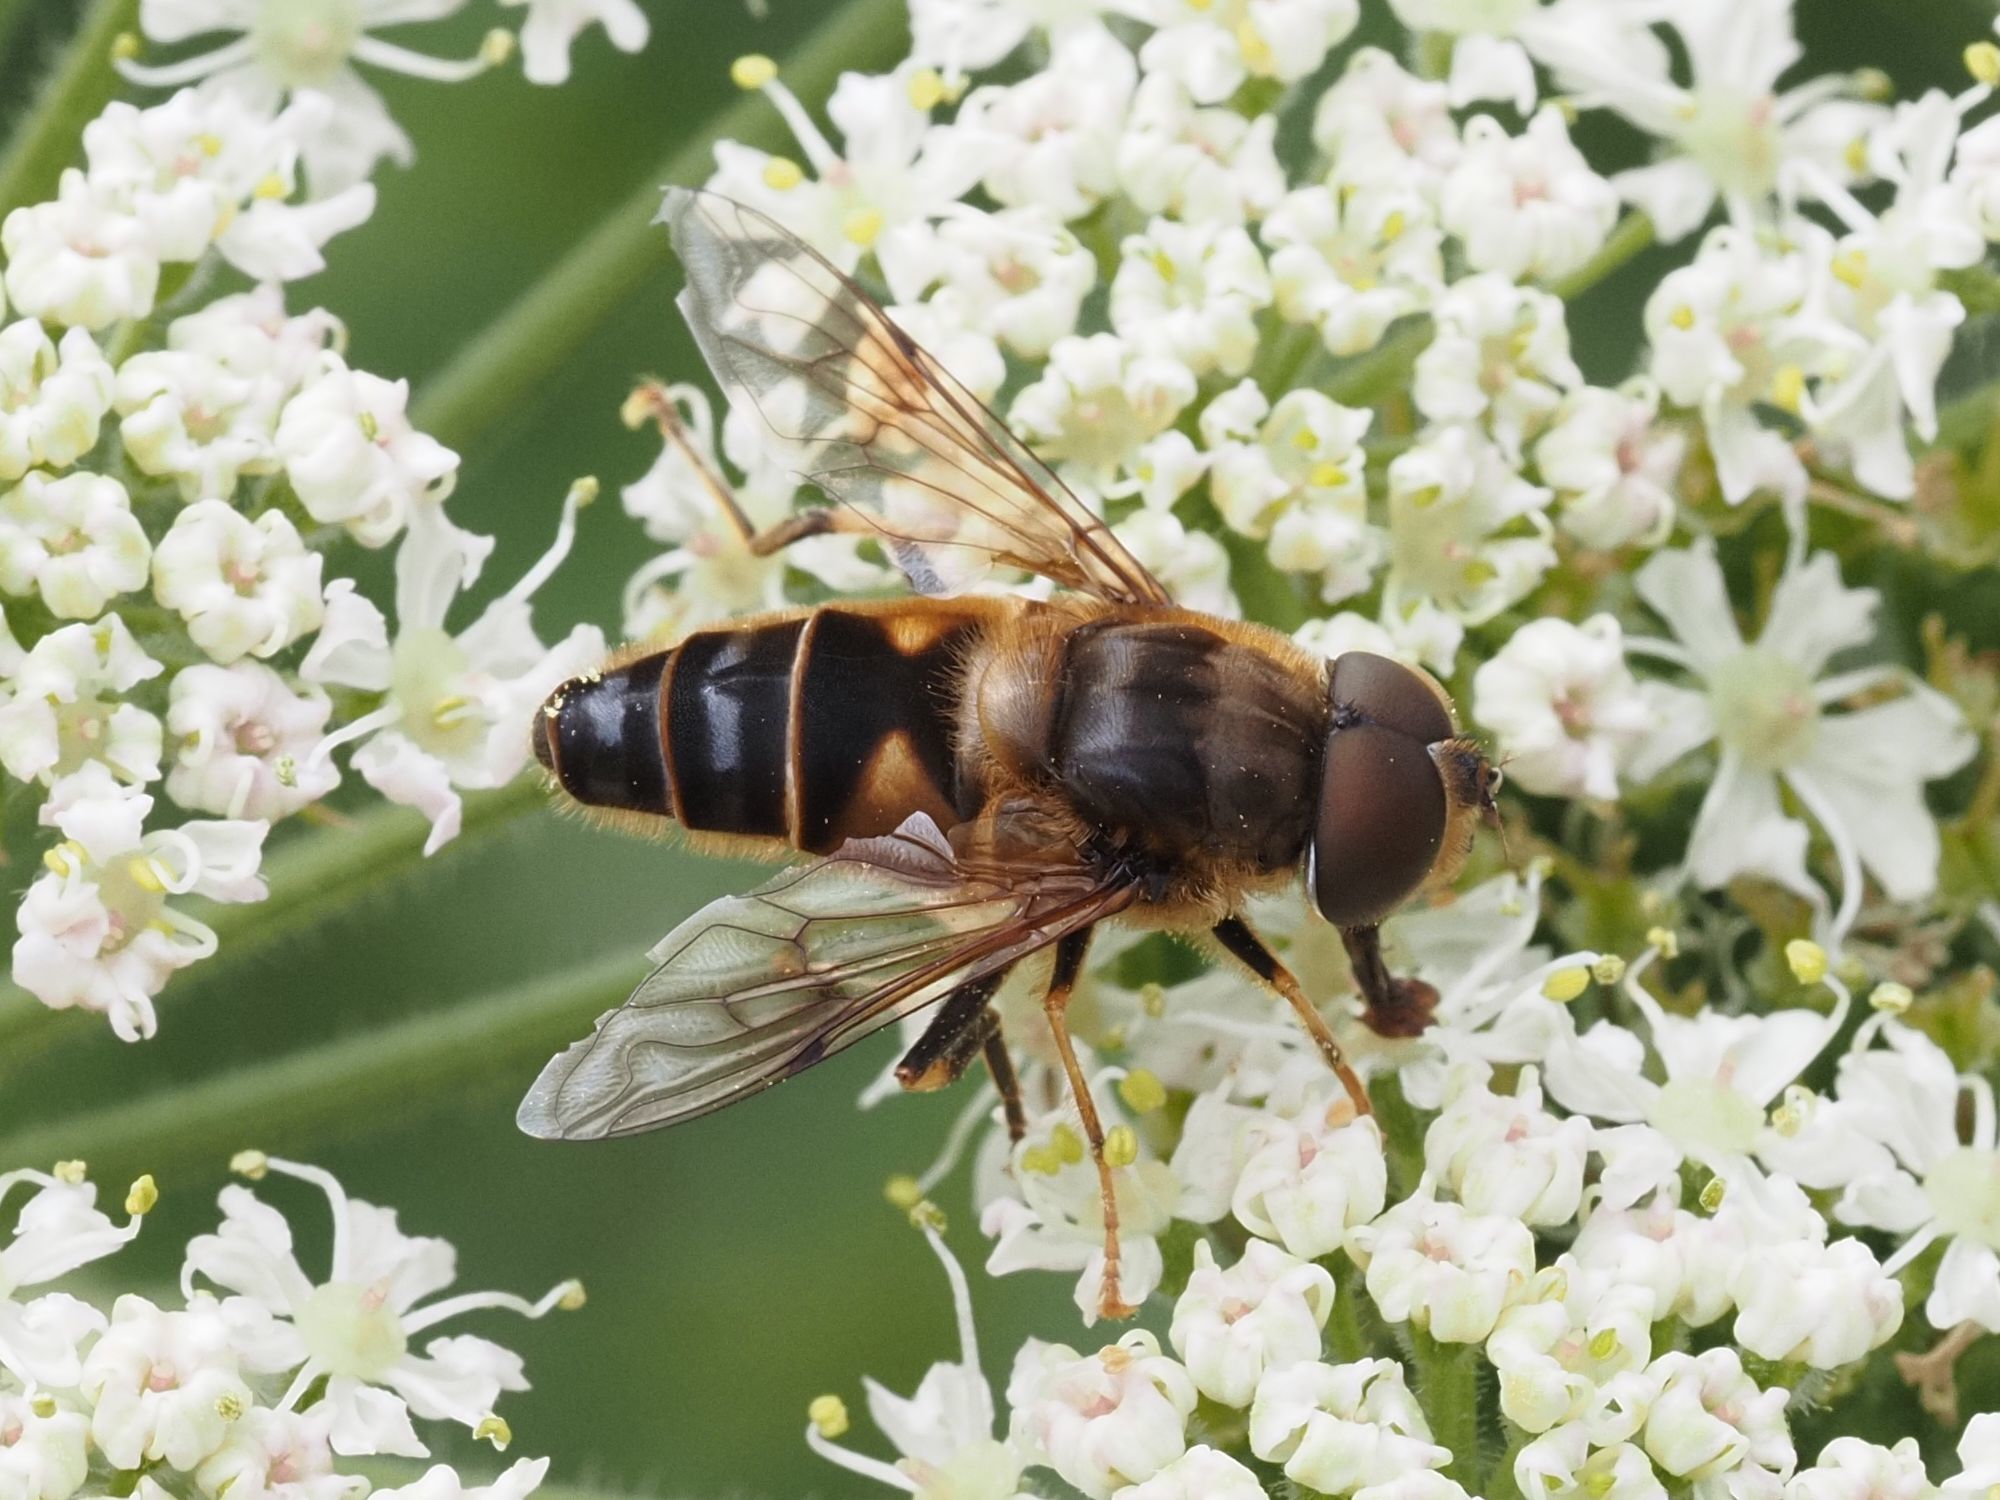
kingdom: Animalia
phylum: Arthropoda
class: Insecta
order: Diptera
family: Syrphidae
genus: Eristalis
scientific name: Eristalis pertinax
